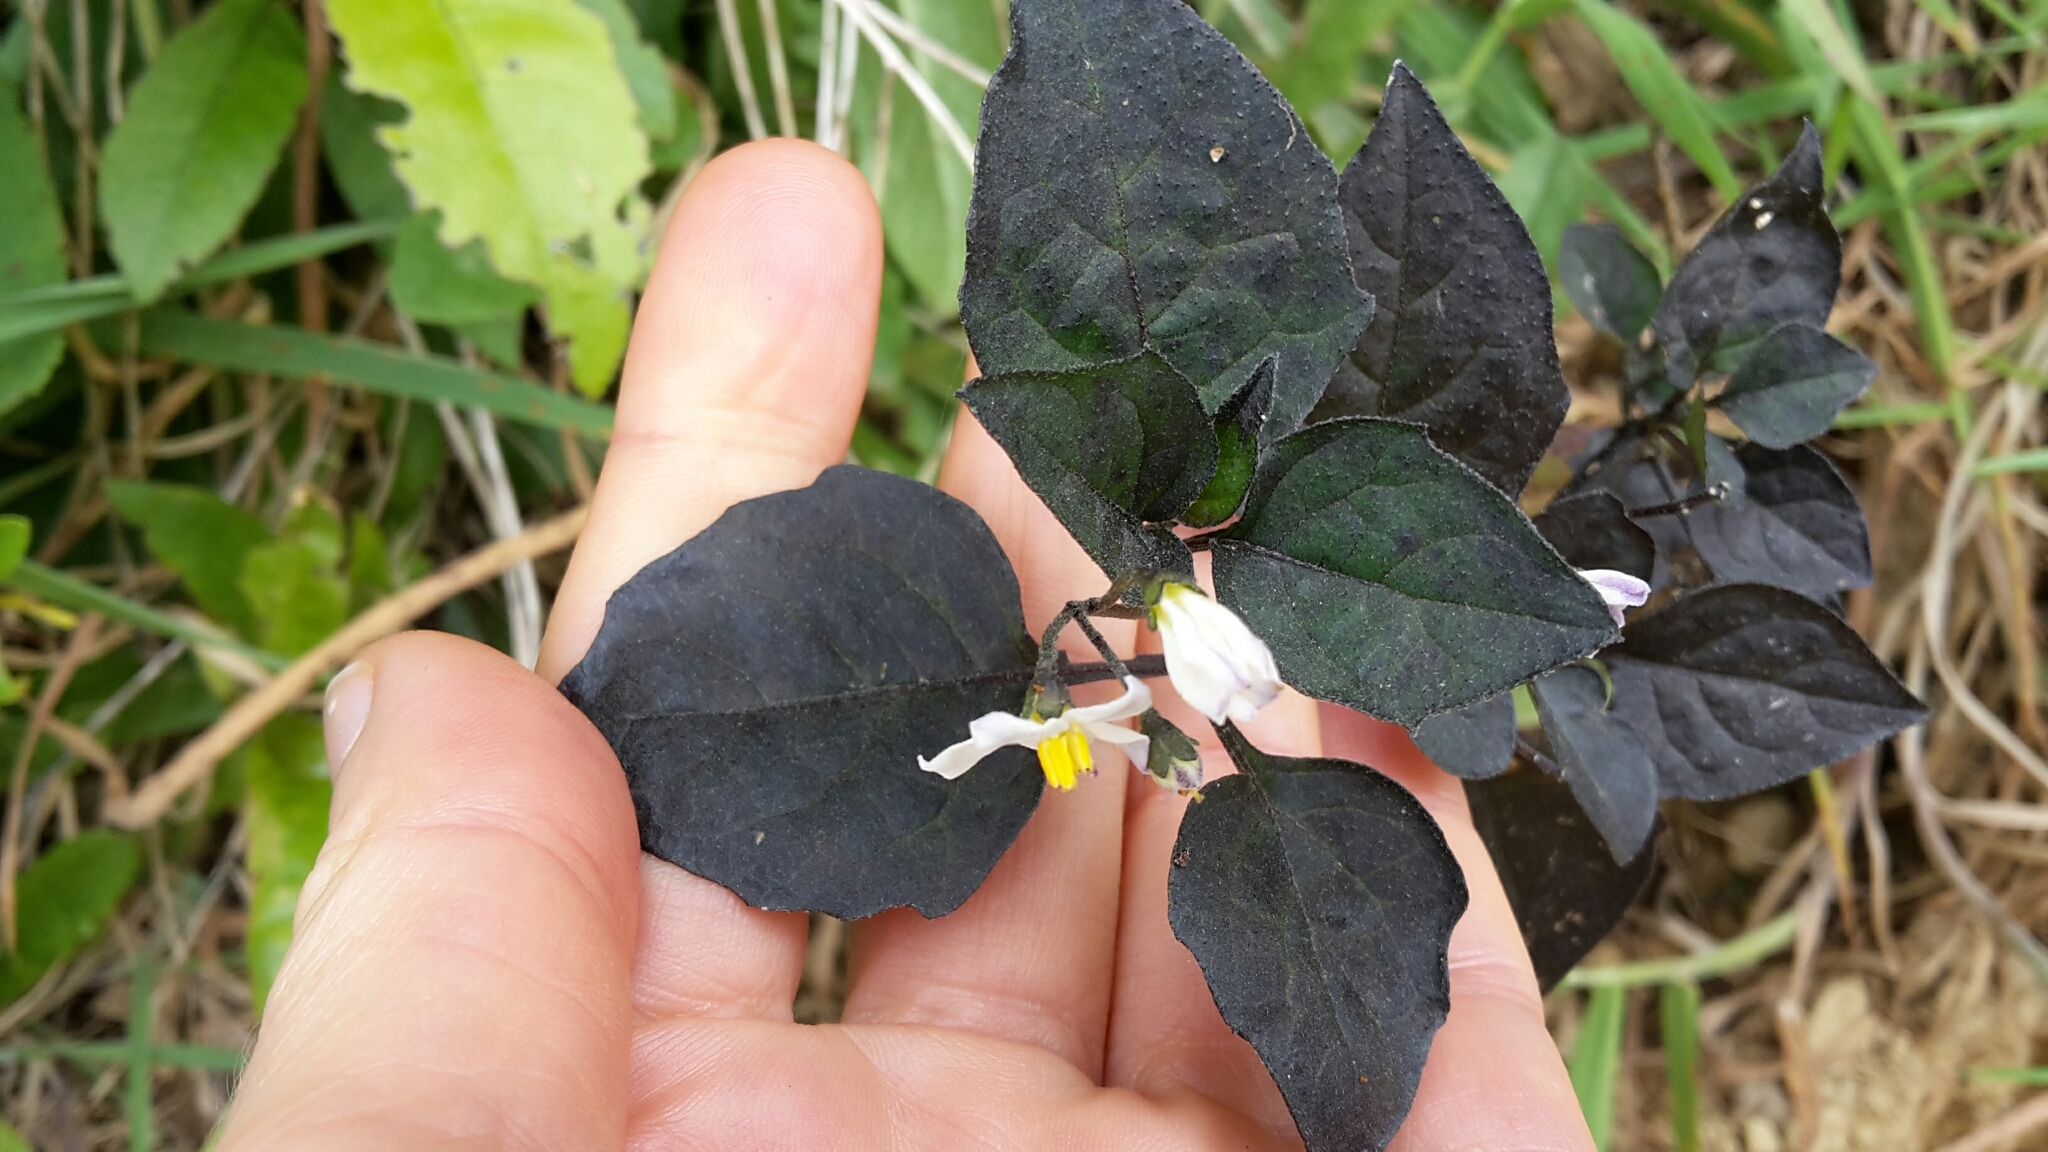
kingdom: Plantae
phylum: Tracheophyta
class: Magnoliopsida
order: Solanales
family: Solanaceae
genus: Solanum
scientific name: Solanum nigrum
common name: Black nightshade
